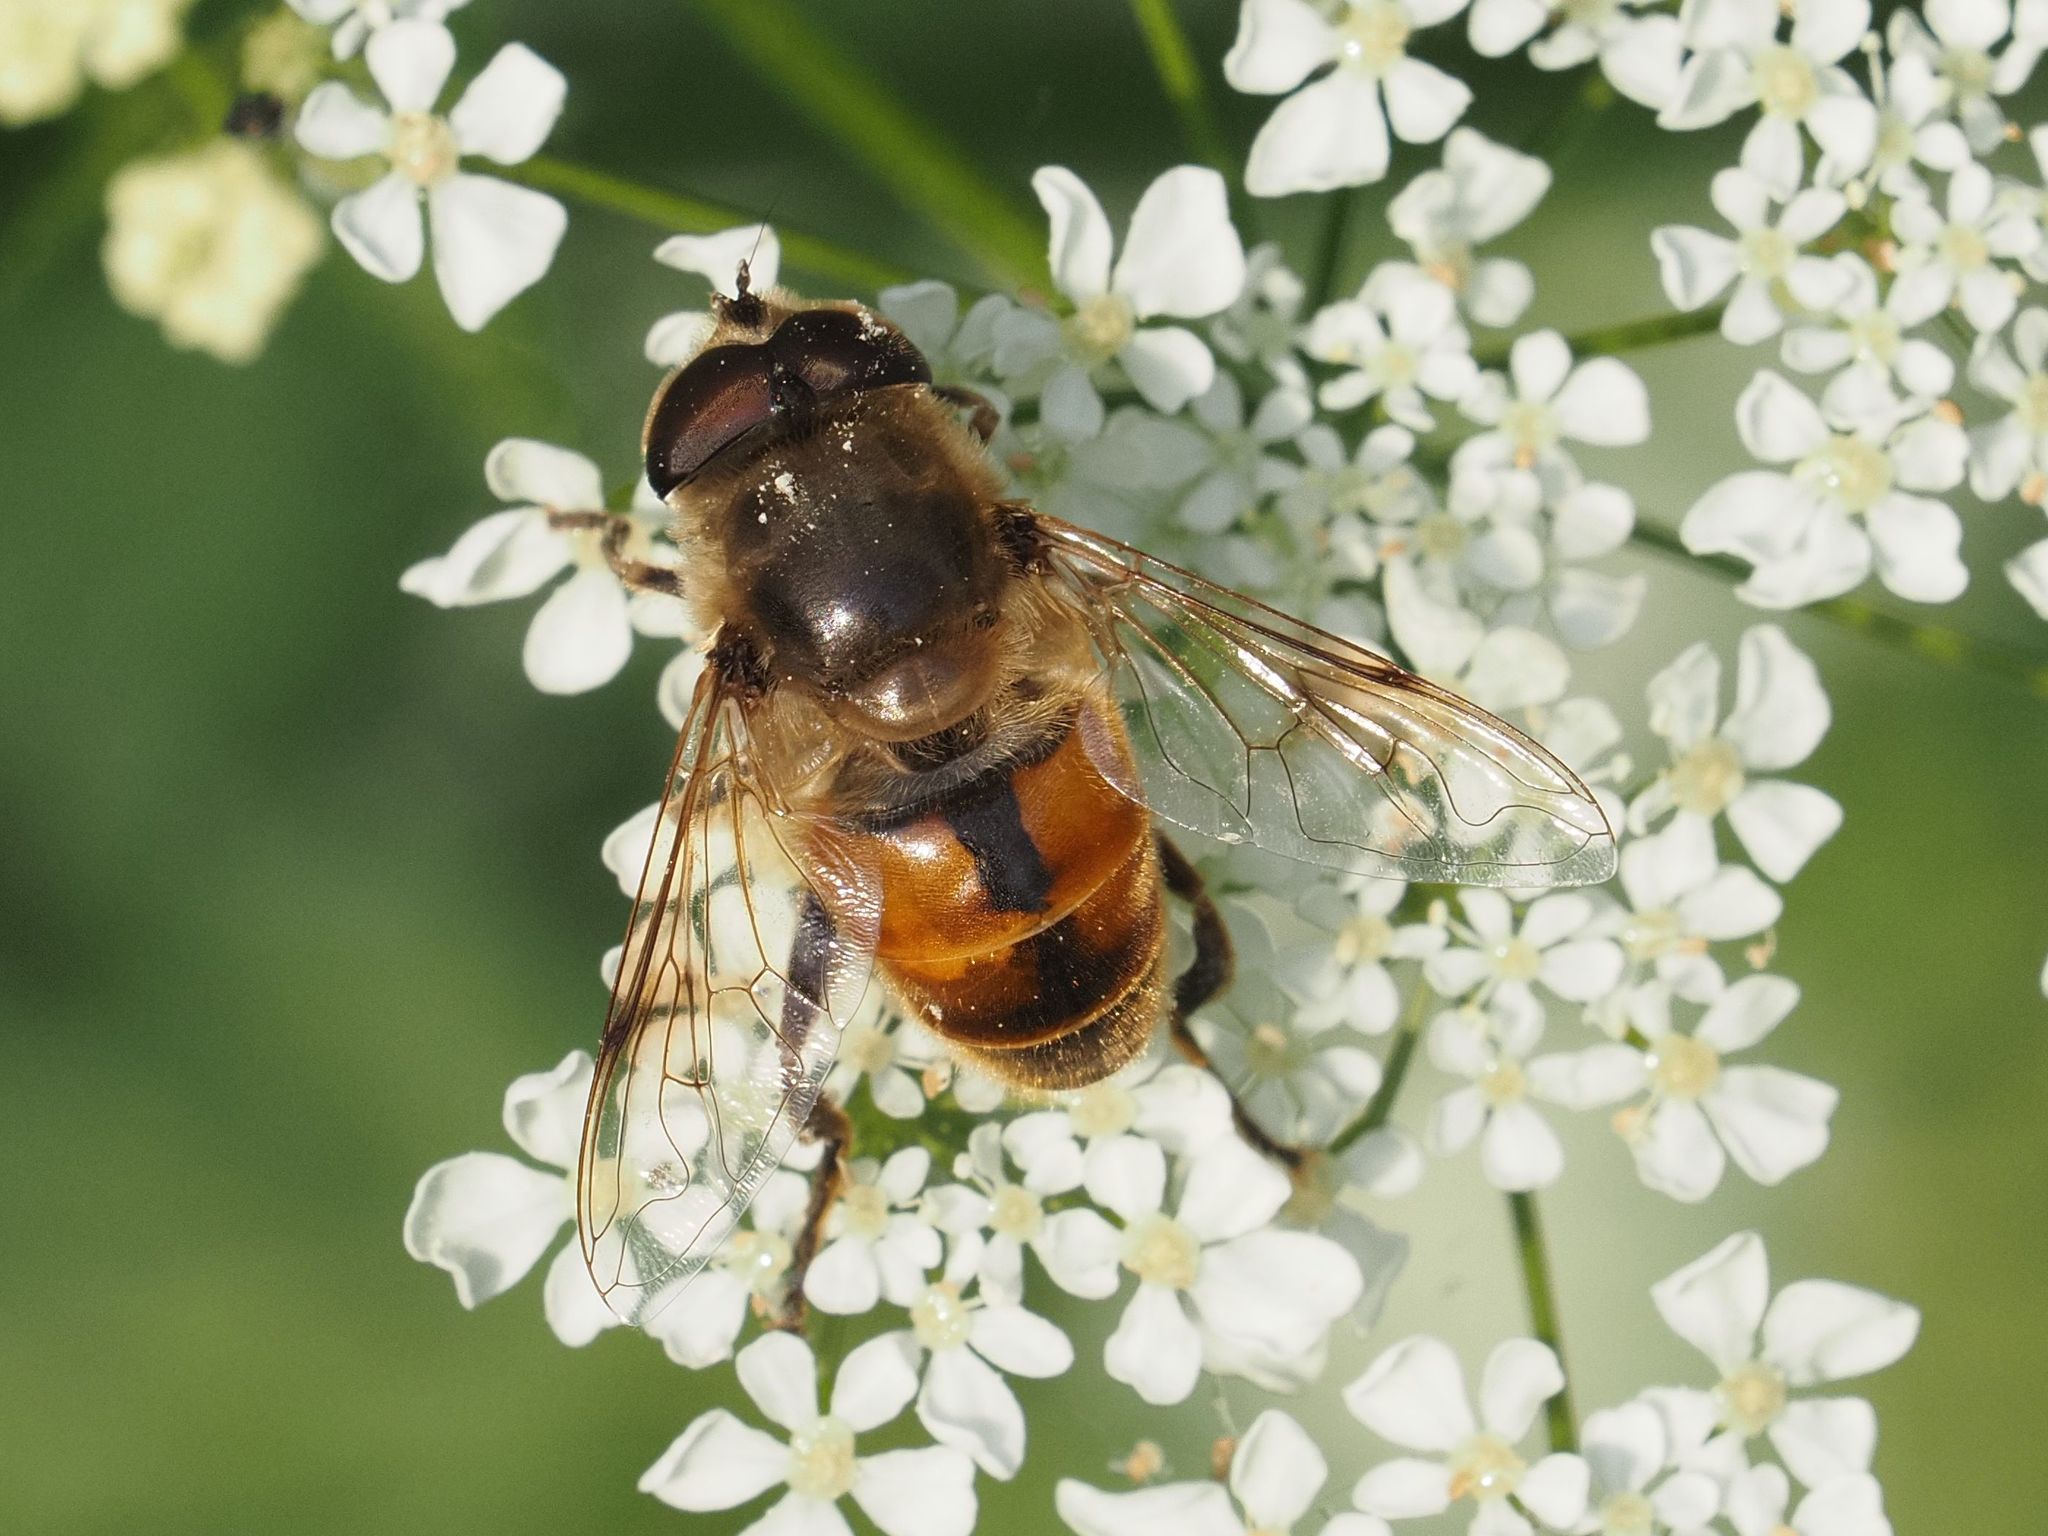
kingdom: Animalia
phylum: Arthropoda
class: Insecta
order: Diptera
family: Syrphidae
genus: Eristalis
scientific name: Eristalis tenax
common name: Drone fly
